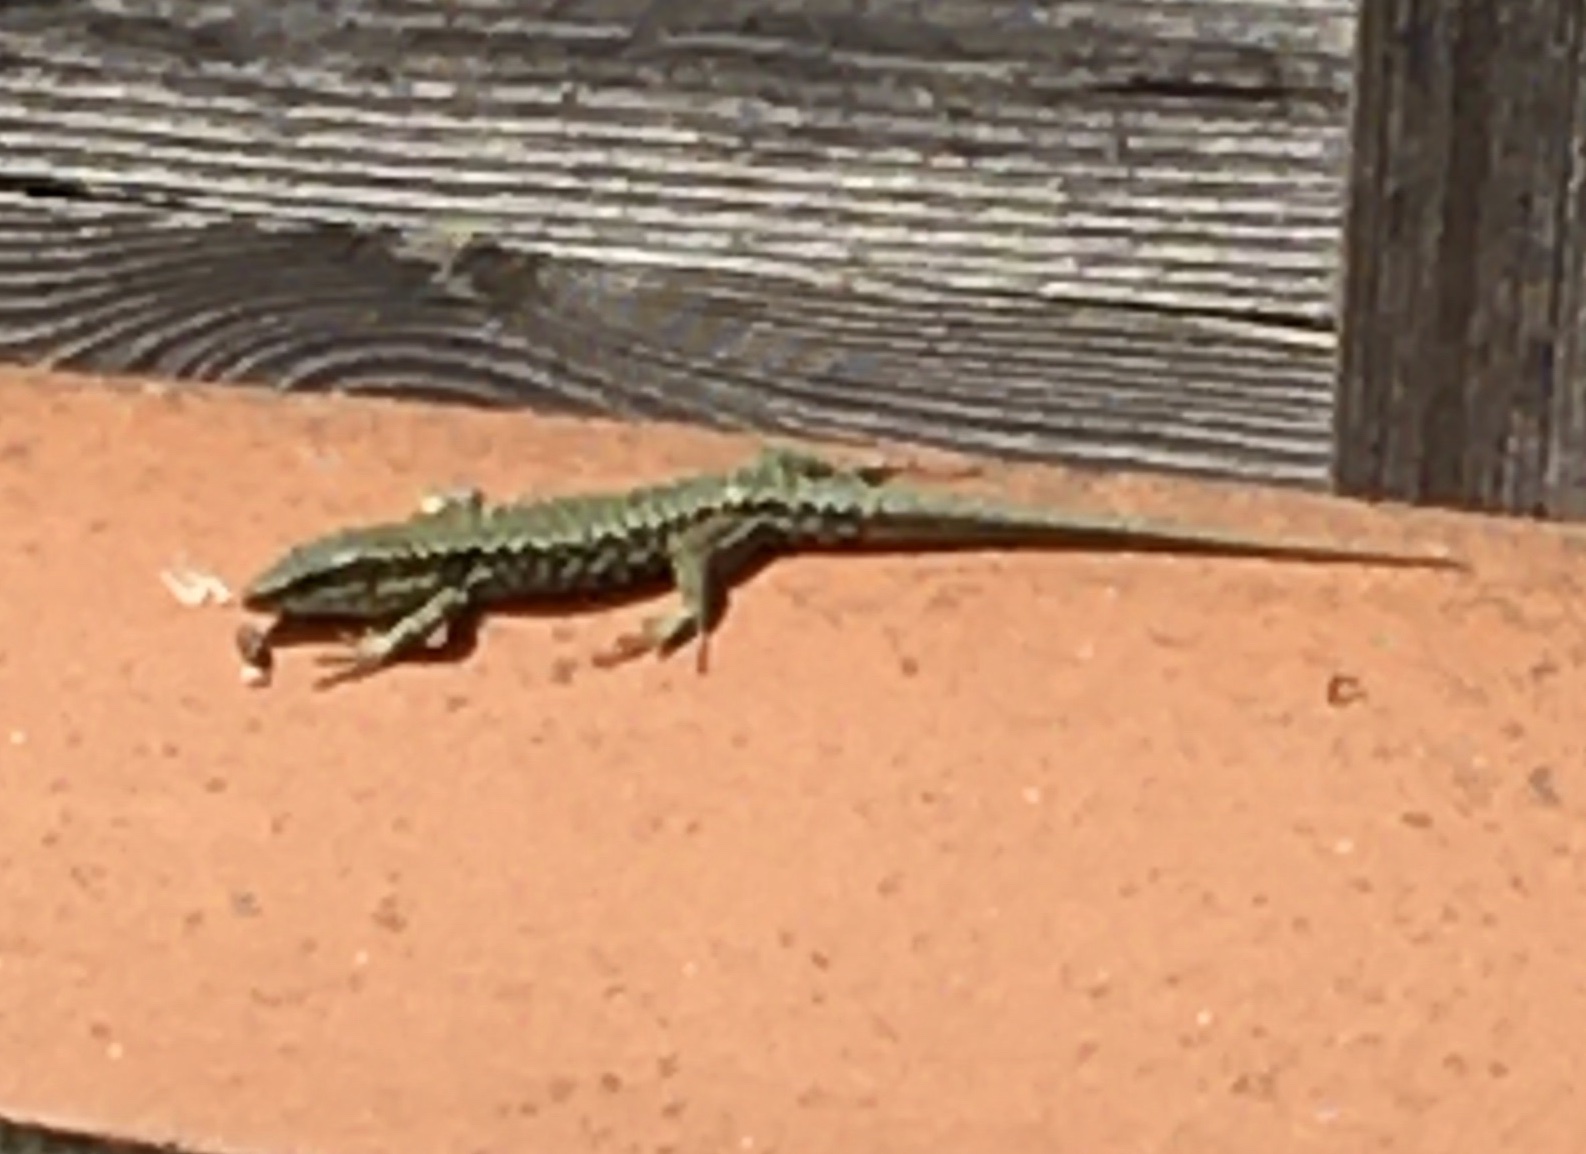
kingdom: Animalia
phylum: Chordata
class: Squamata
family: Lacertidae
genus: Podarcis
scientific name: Podarcis muralis
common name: Common wall lizard
